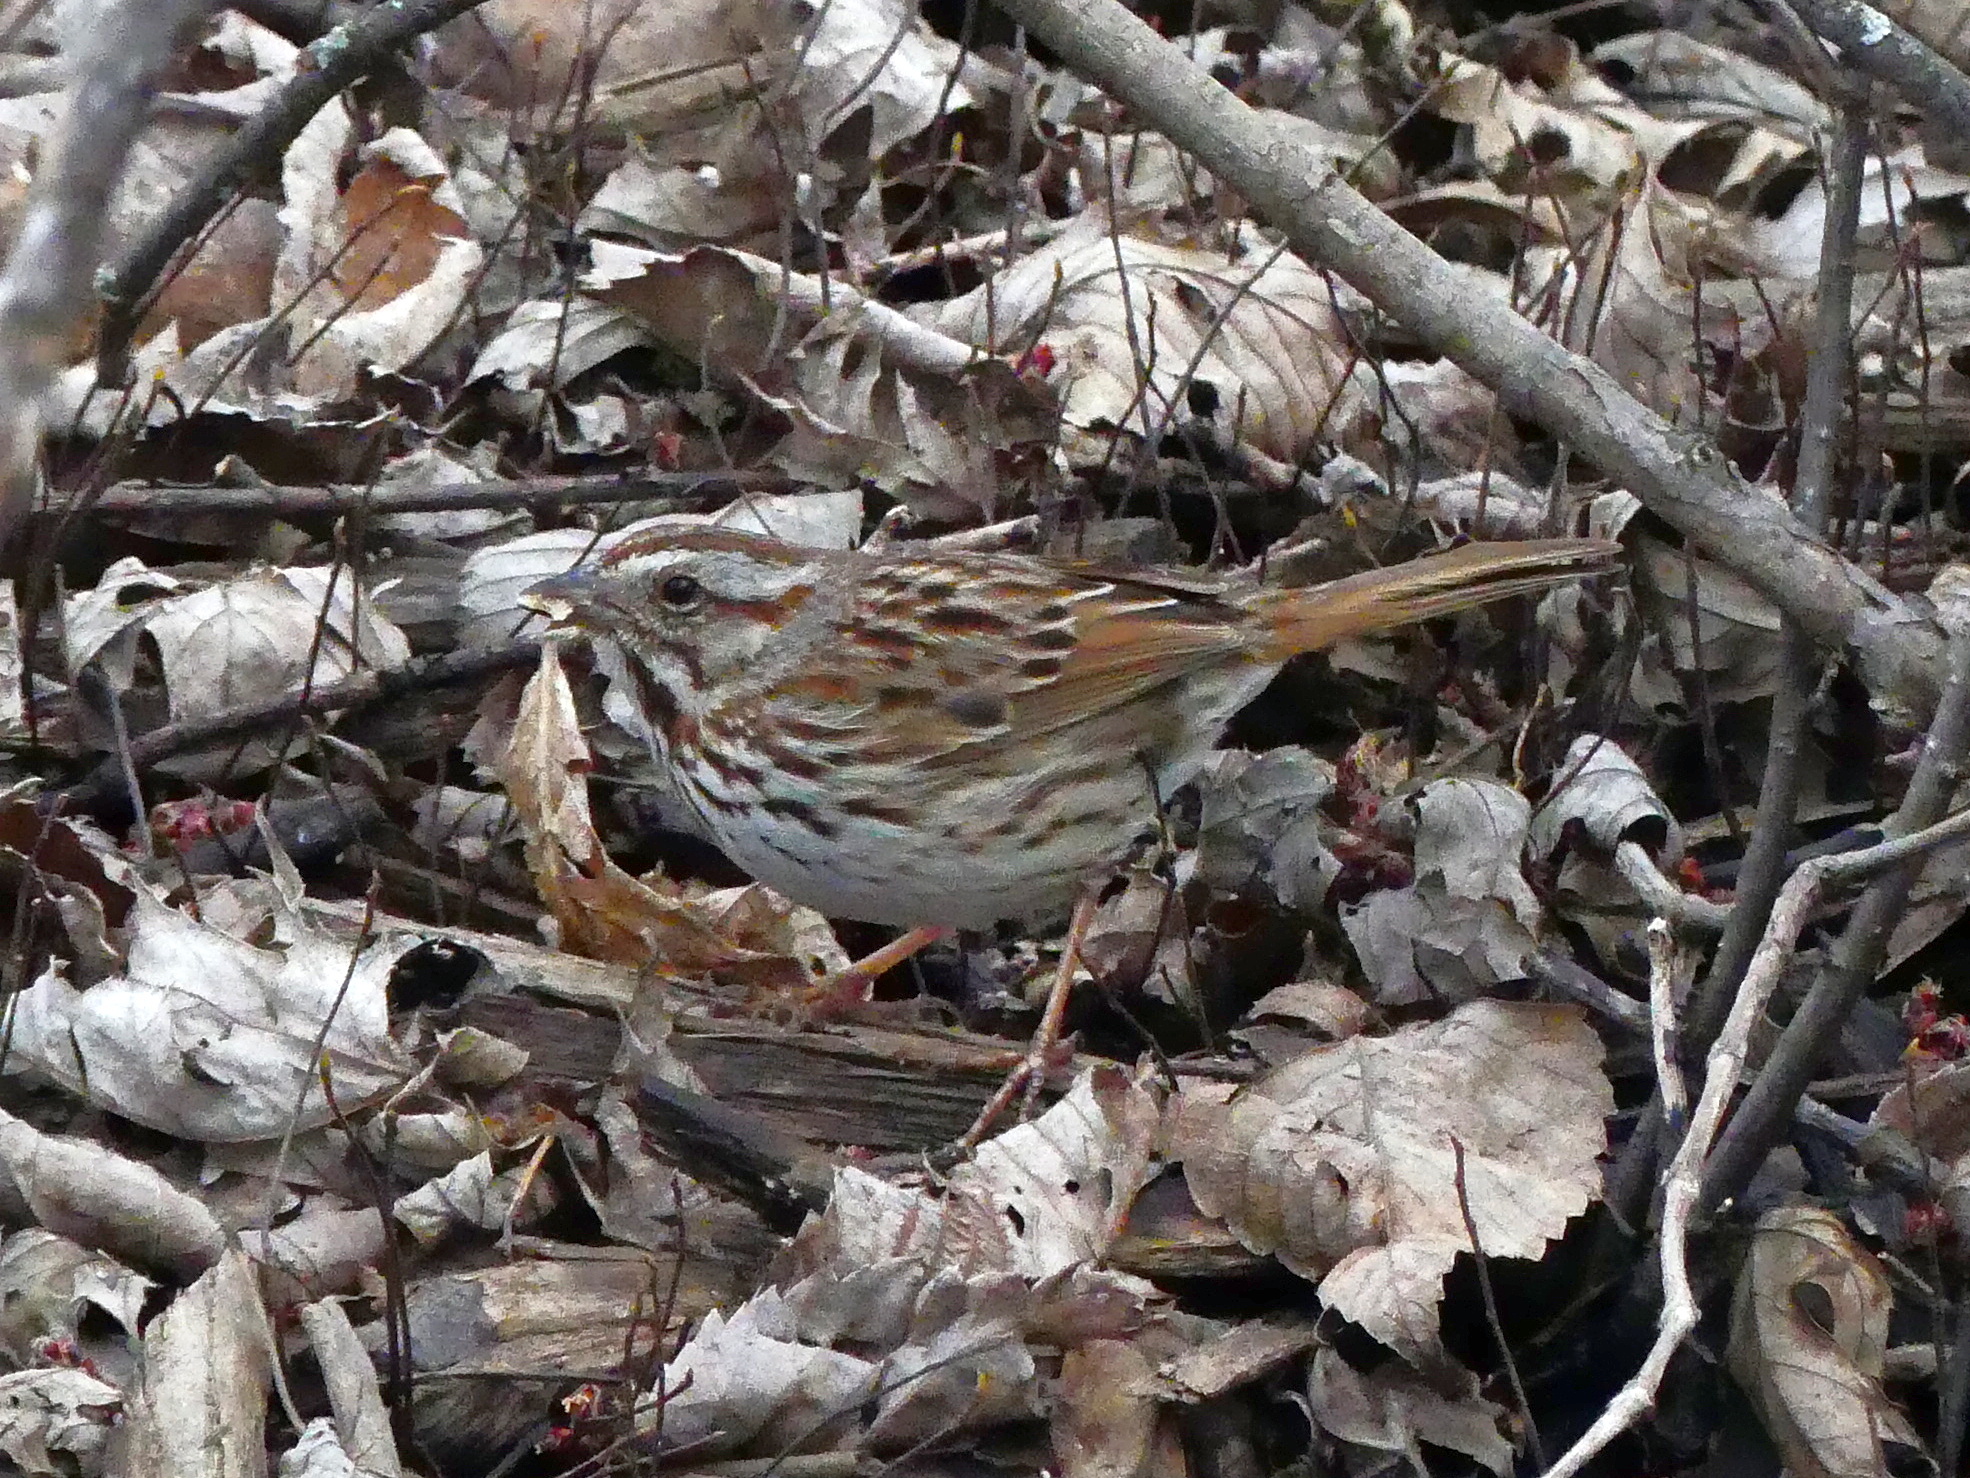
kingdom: Animalia
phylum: Chordata
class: Aves
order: Passeriformes
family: Passerellidae
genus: Melospiza
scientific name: Melospiza melodia
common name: Song sparrow
